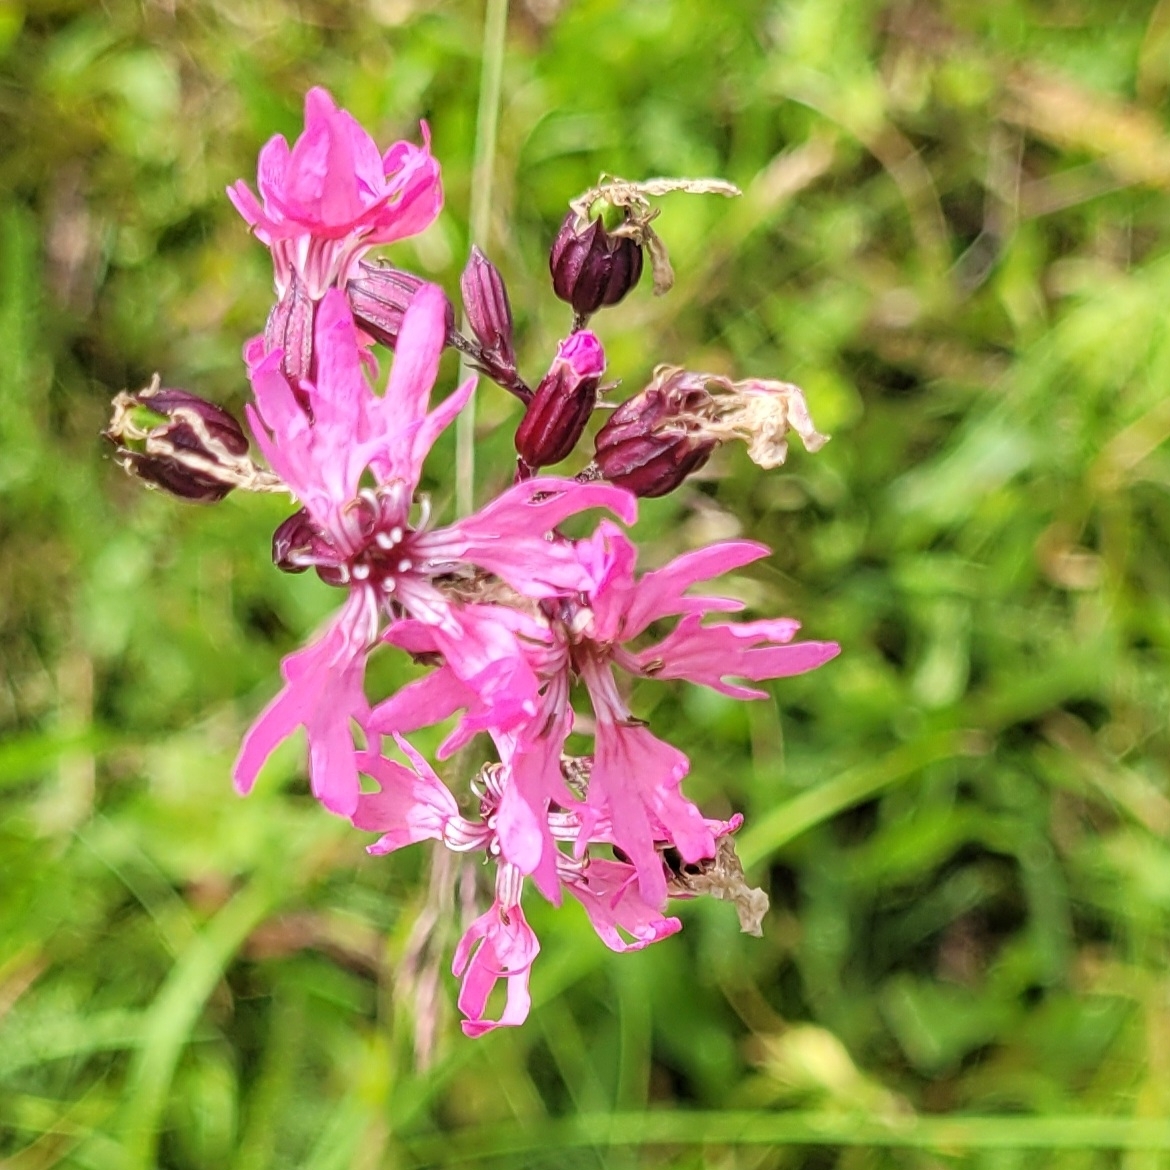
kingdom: Plantae
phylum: Tracheophyta
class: Magnoliopsida
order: Caryophyllales
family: Caryophyllaceae
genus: Silene
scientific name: Silene flos-cuculi
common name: Ragged-robin
